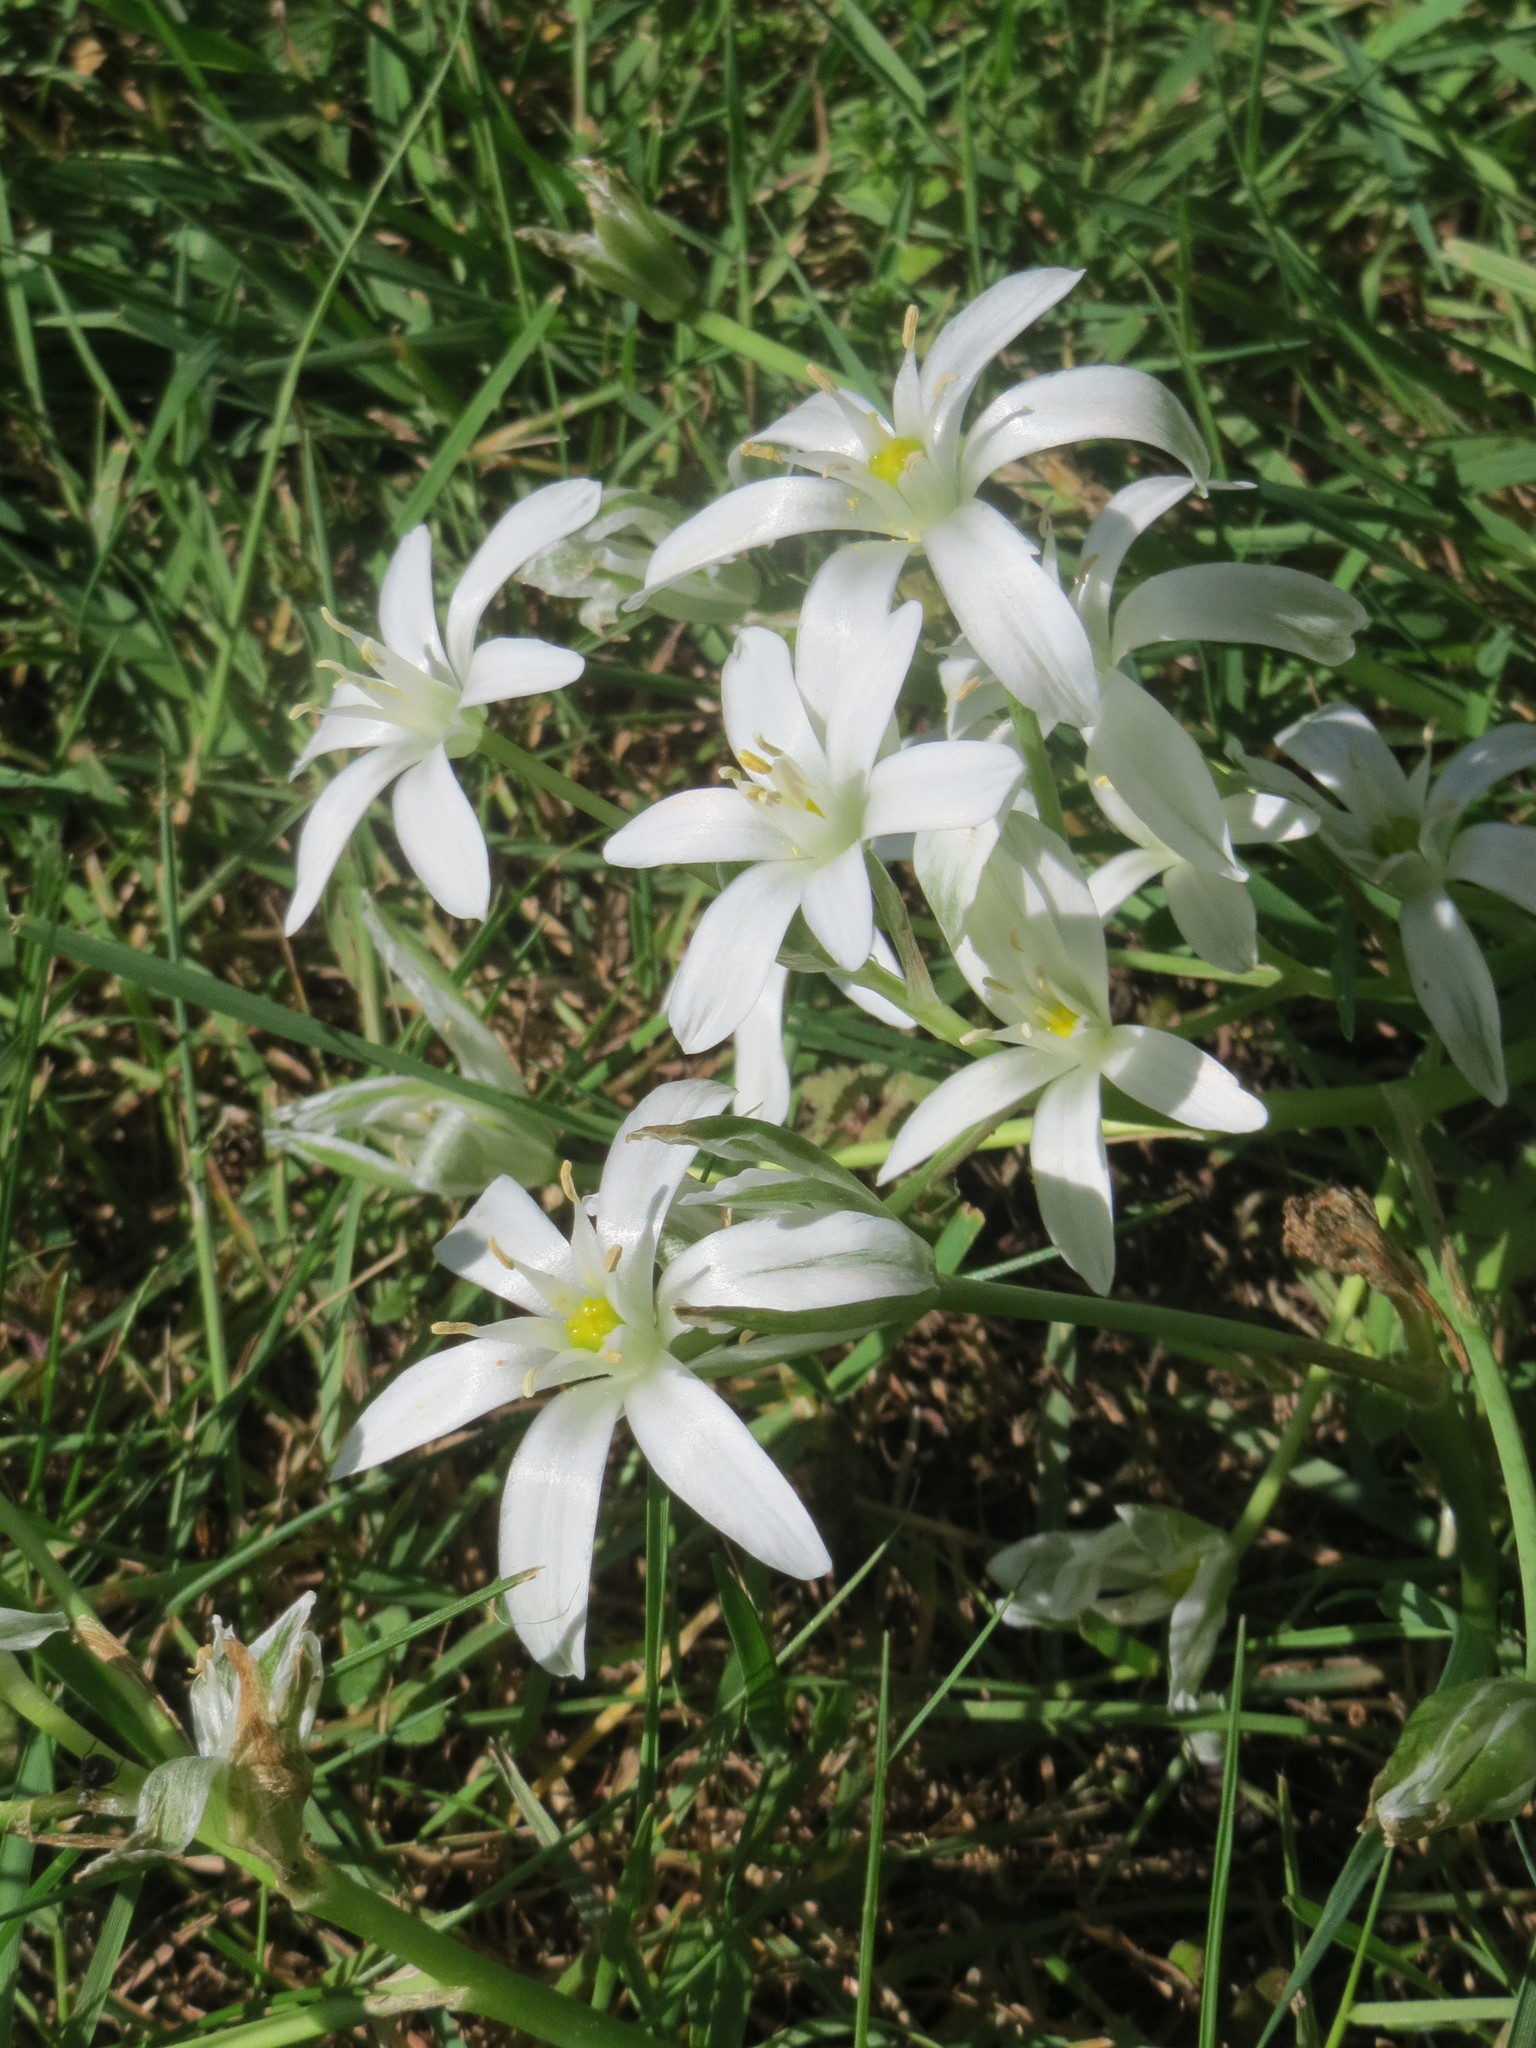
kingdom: Plantae
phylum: Tracheophyta
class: Liliopsida
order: Asparagales
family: Asparagaceae
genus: Ornithogalum
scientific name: Ornithogalum umbellatum
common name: Garden star-of-bethlehem
